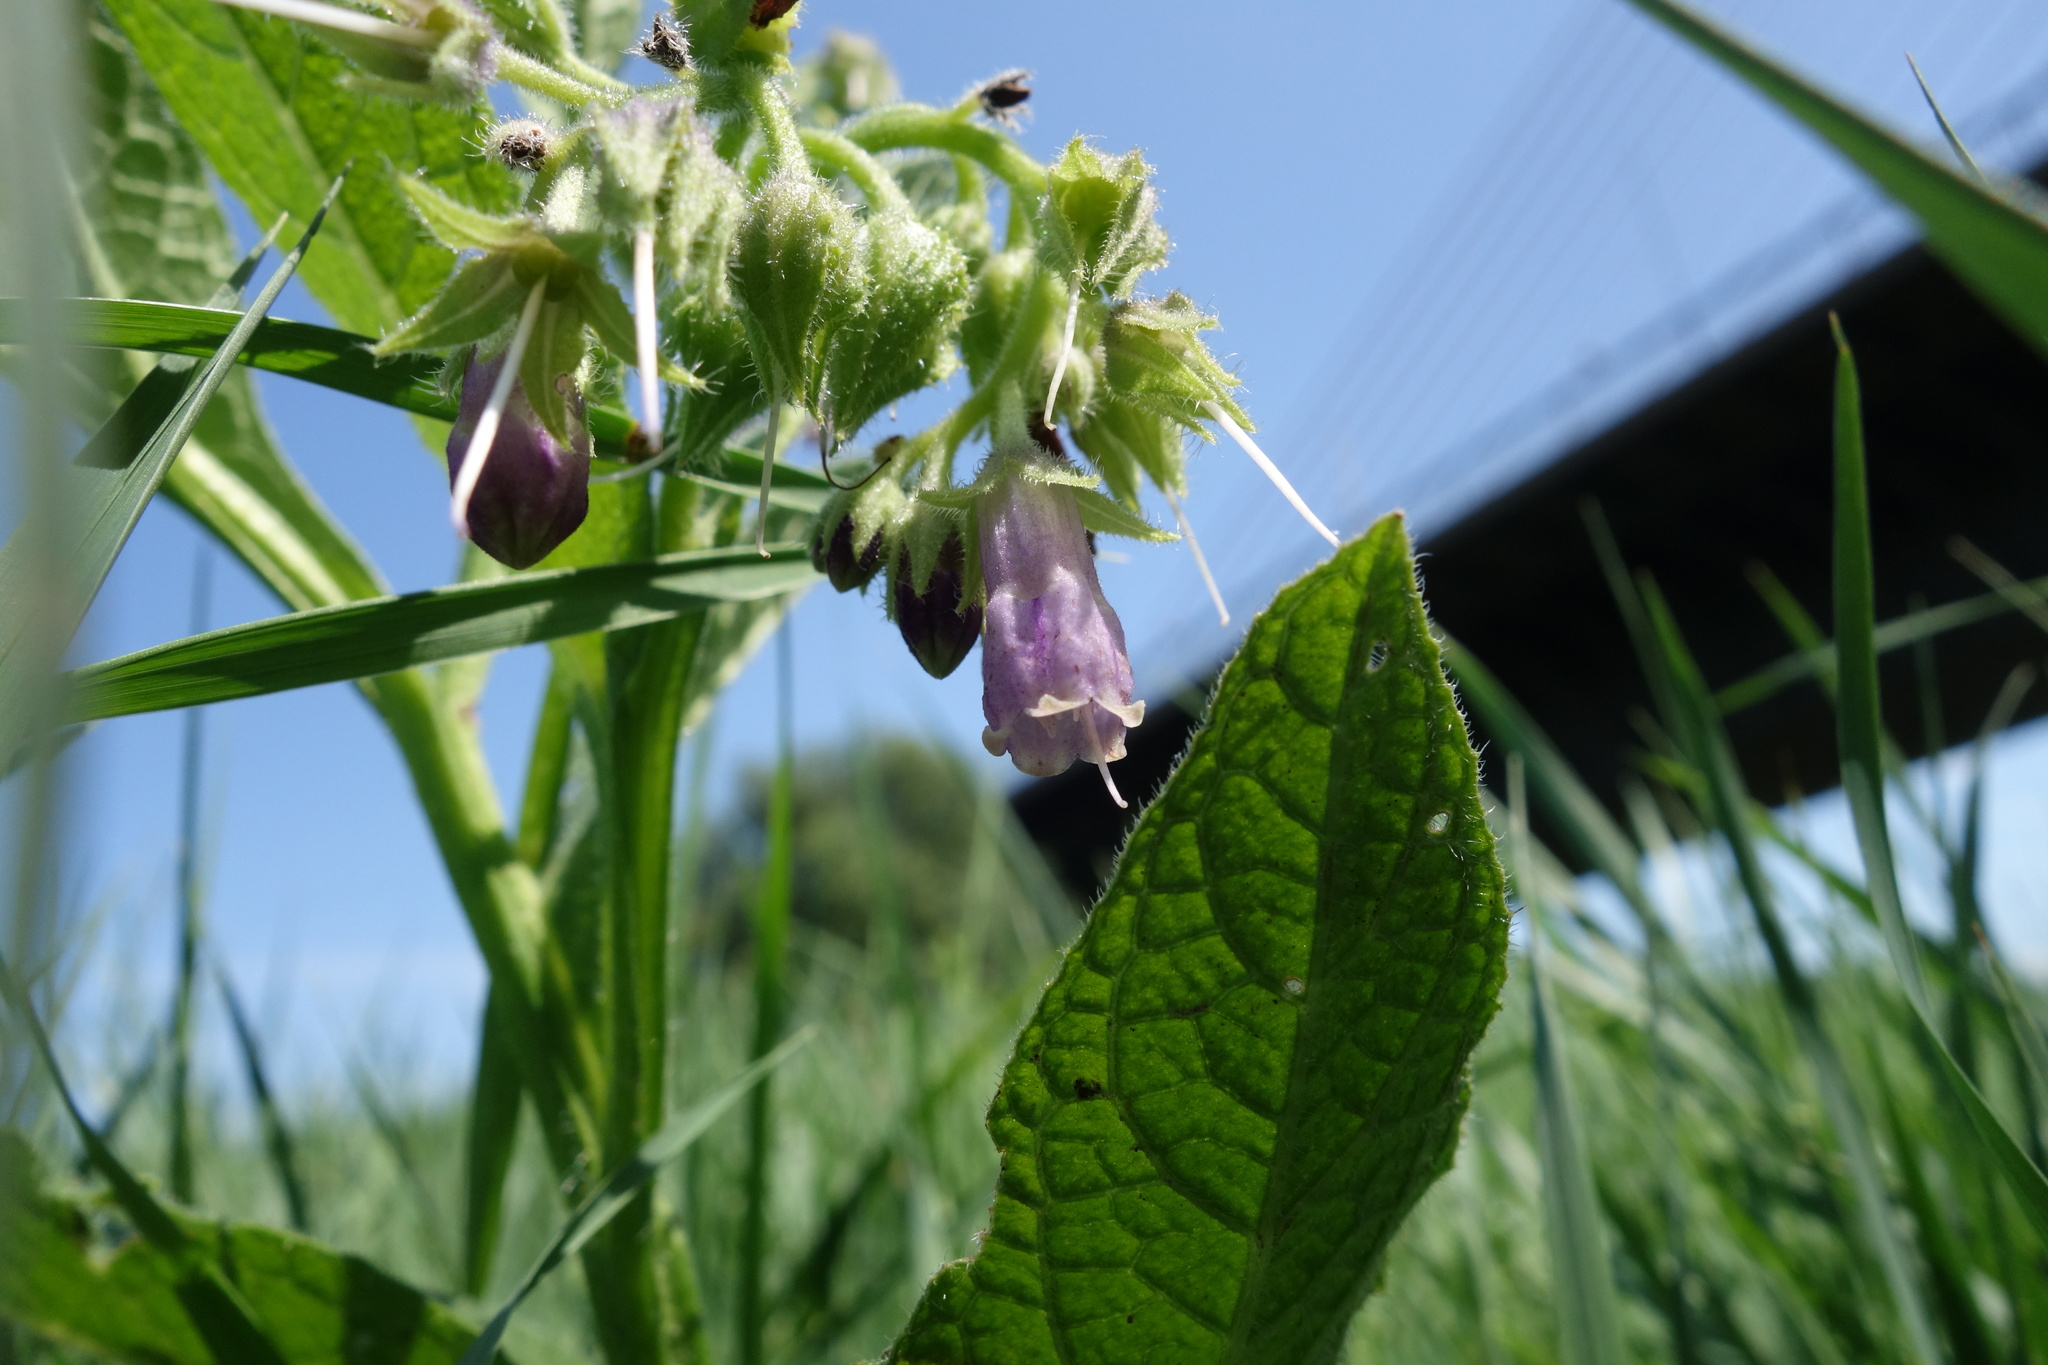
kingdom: Plantae
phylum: Tracheophyta
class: Magnoliopsida
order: Boraginales
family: Boraginaceae
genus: Symphytum
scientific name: Symphytum officinale
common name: Common comfrey
